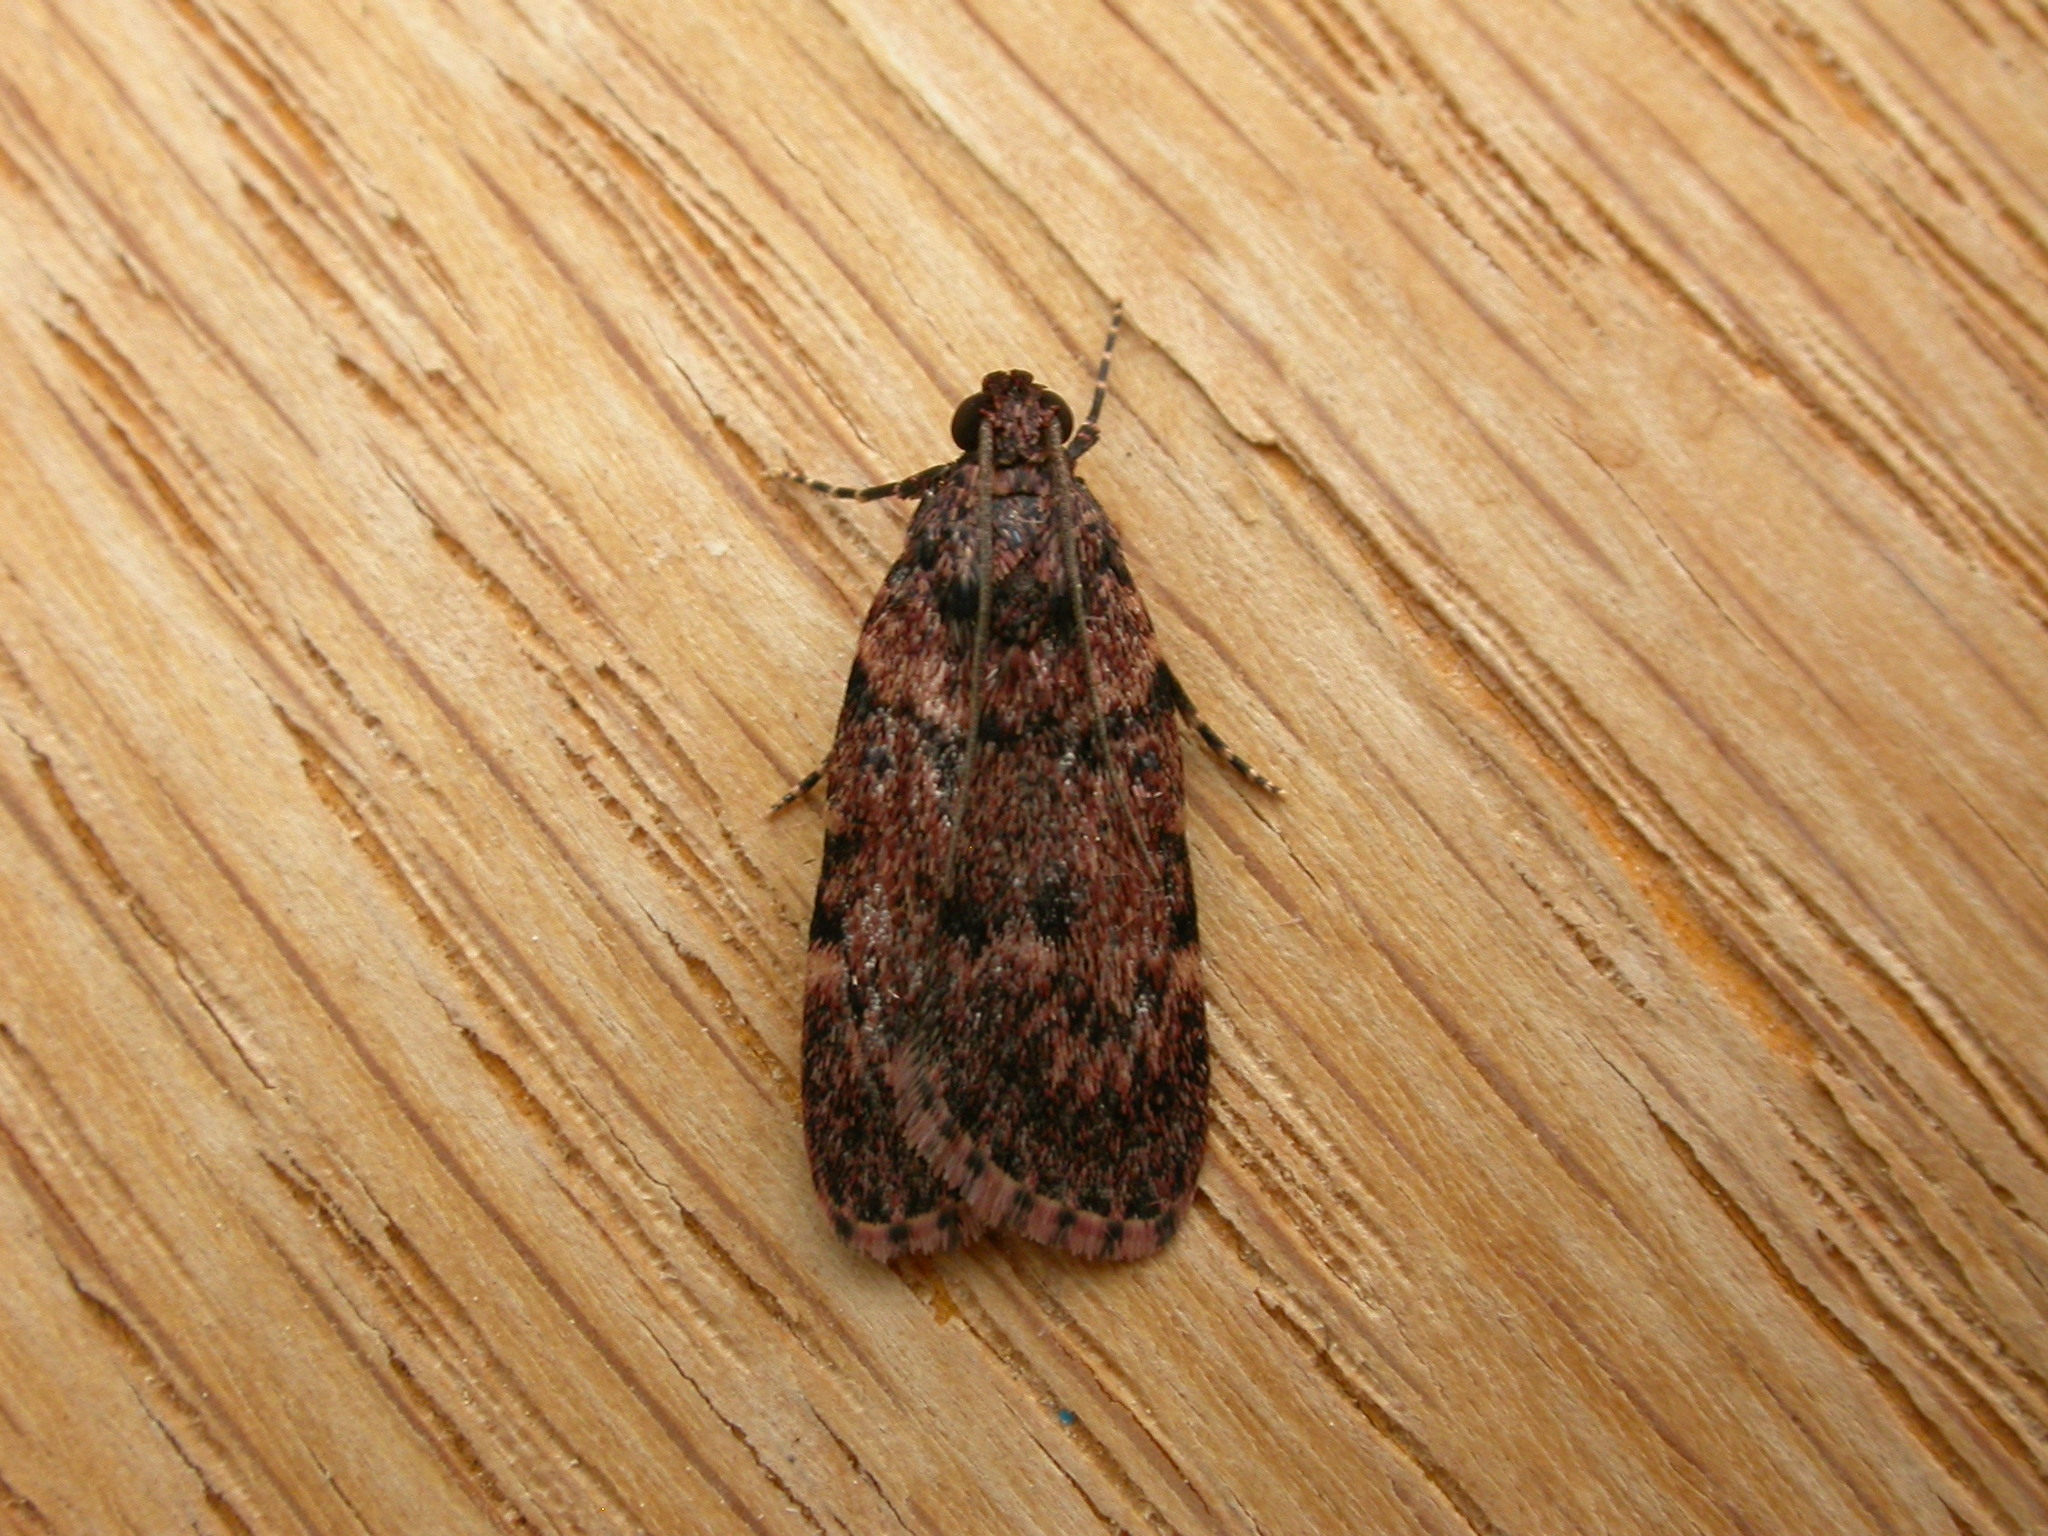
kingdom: Animalia
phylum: Arthropoda
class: Insecta
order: Lepidoptera
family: Pyralidae
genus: Mimaglossa
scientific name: Mimaglossa nauplialis
